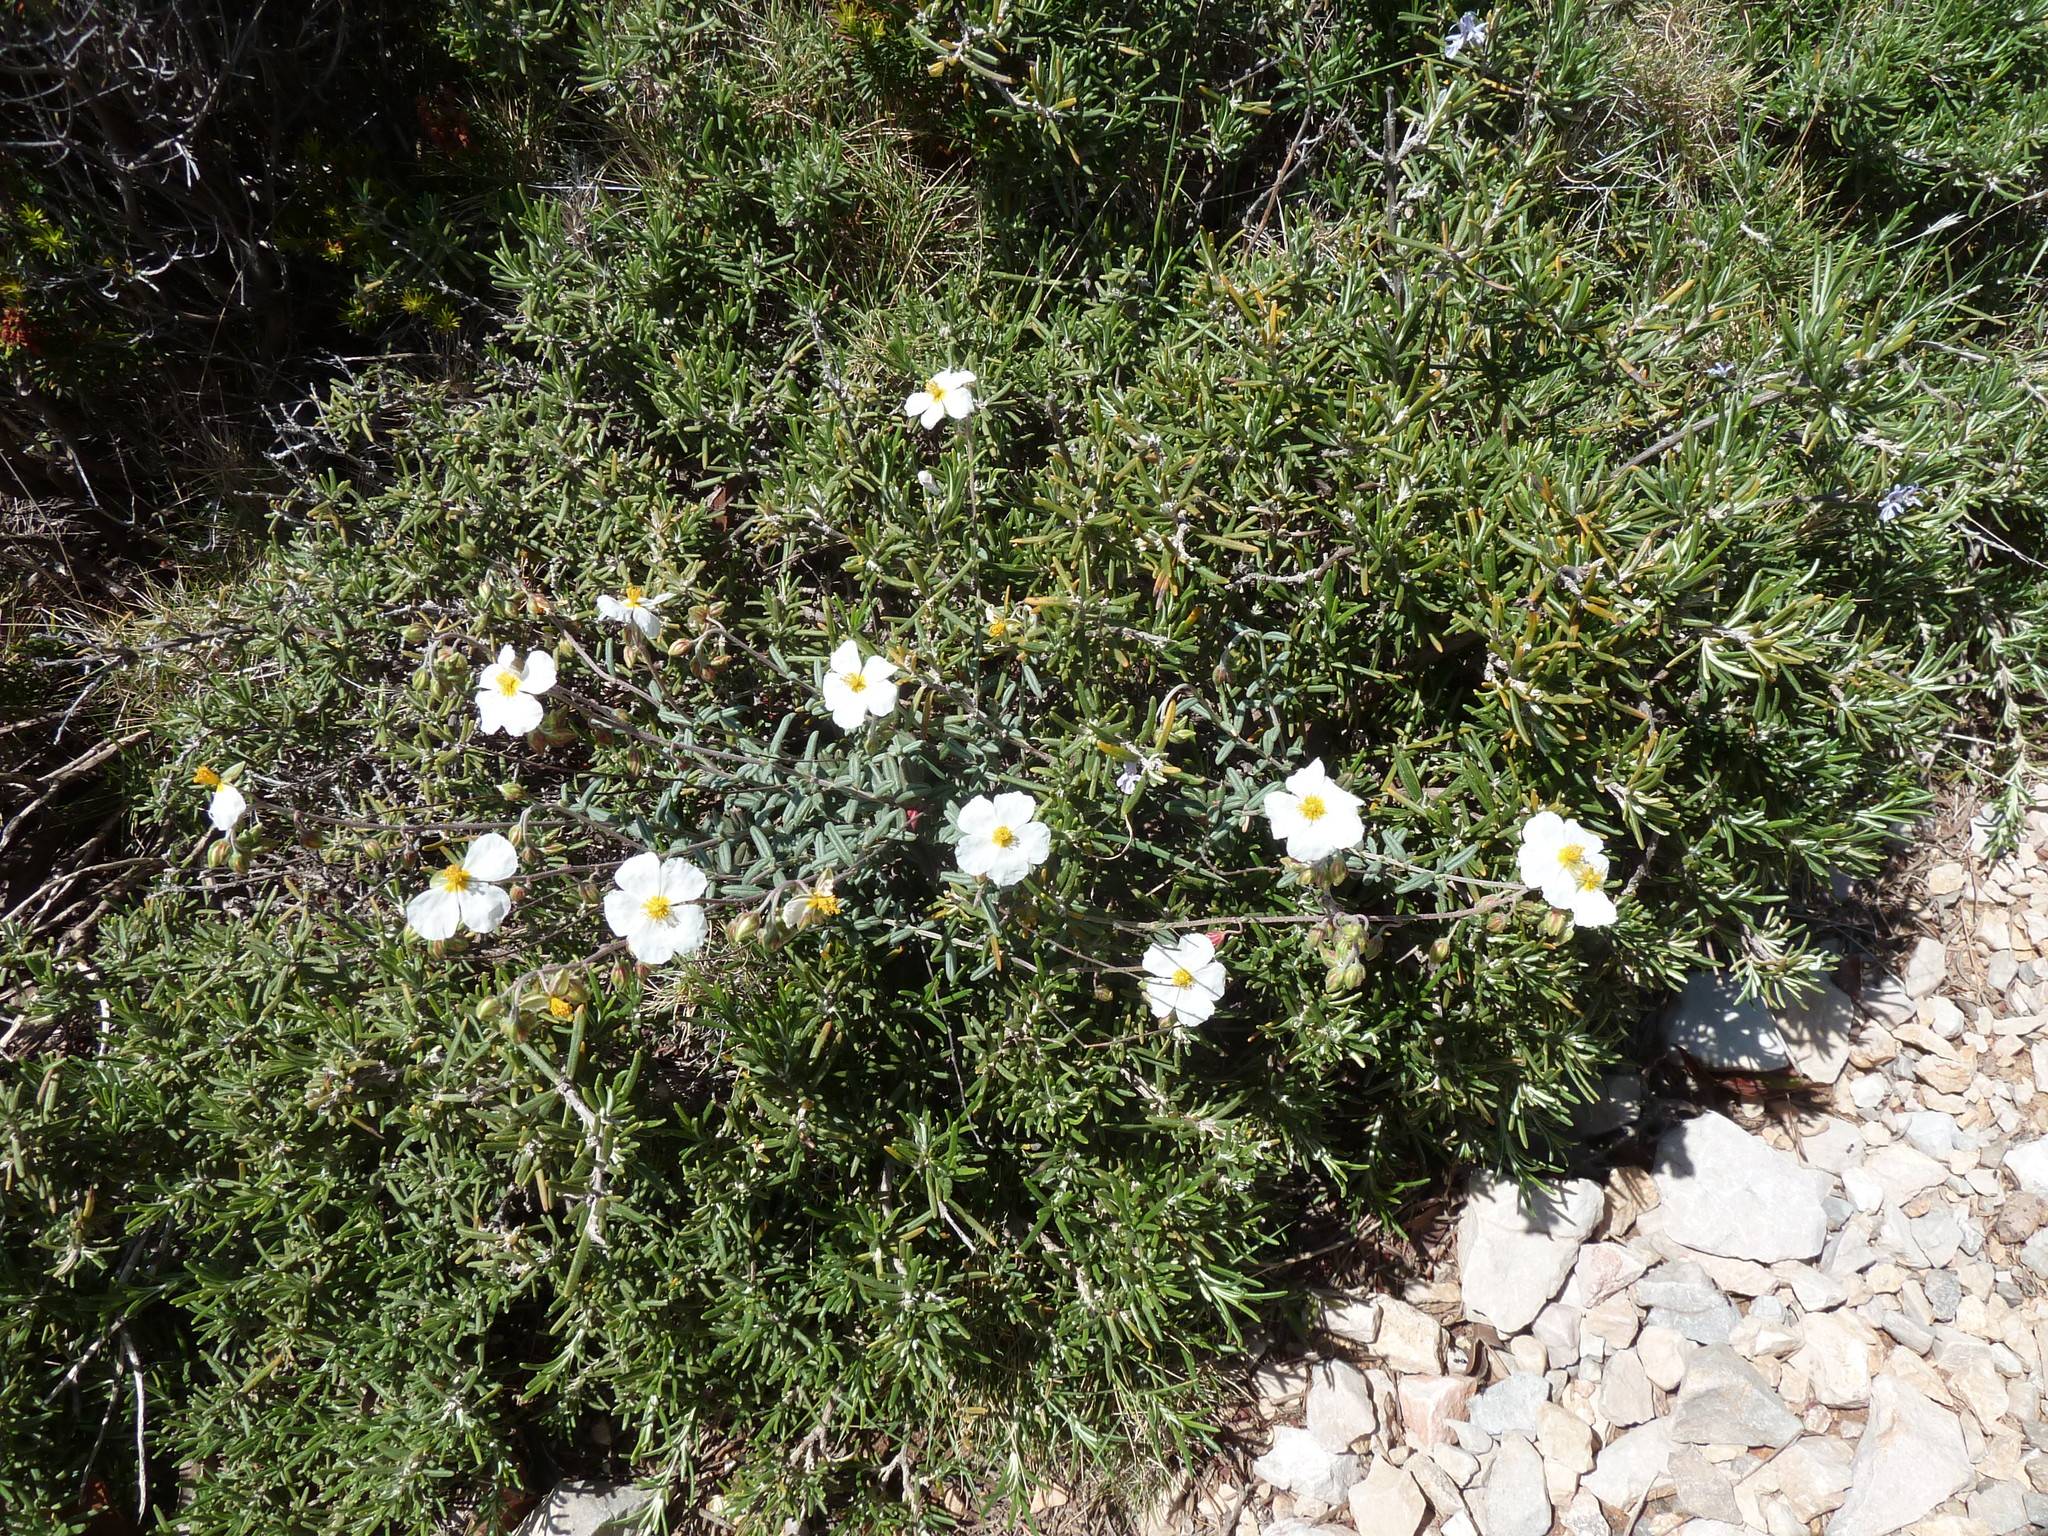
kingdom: Plantae
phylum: Tracheophyta
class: Magnoliopsida
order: Malvales
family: Cistaceae
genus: Helianthemum
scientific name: Helianthemum violaceum
